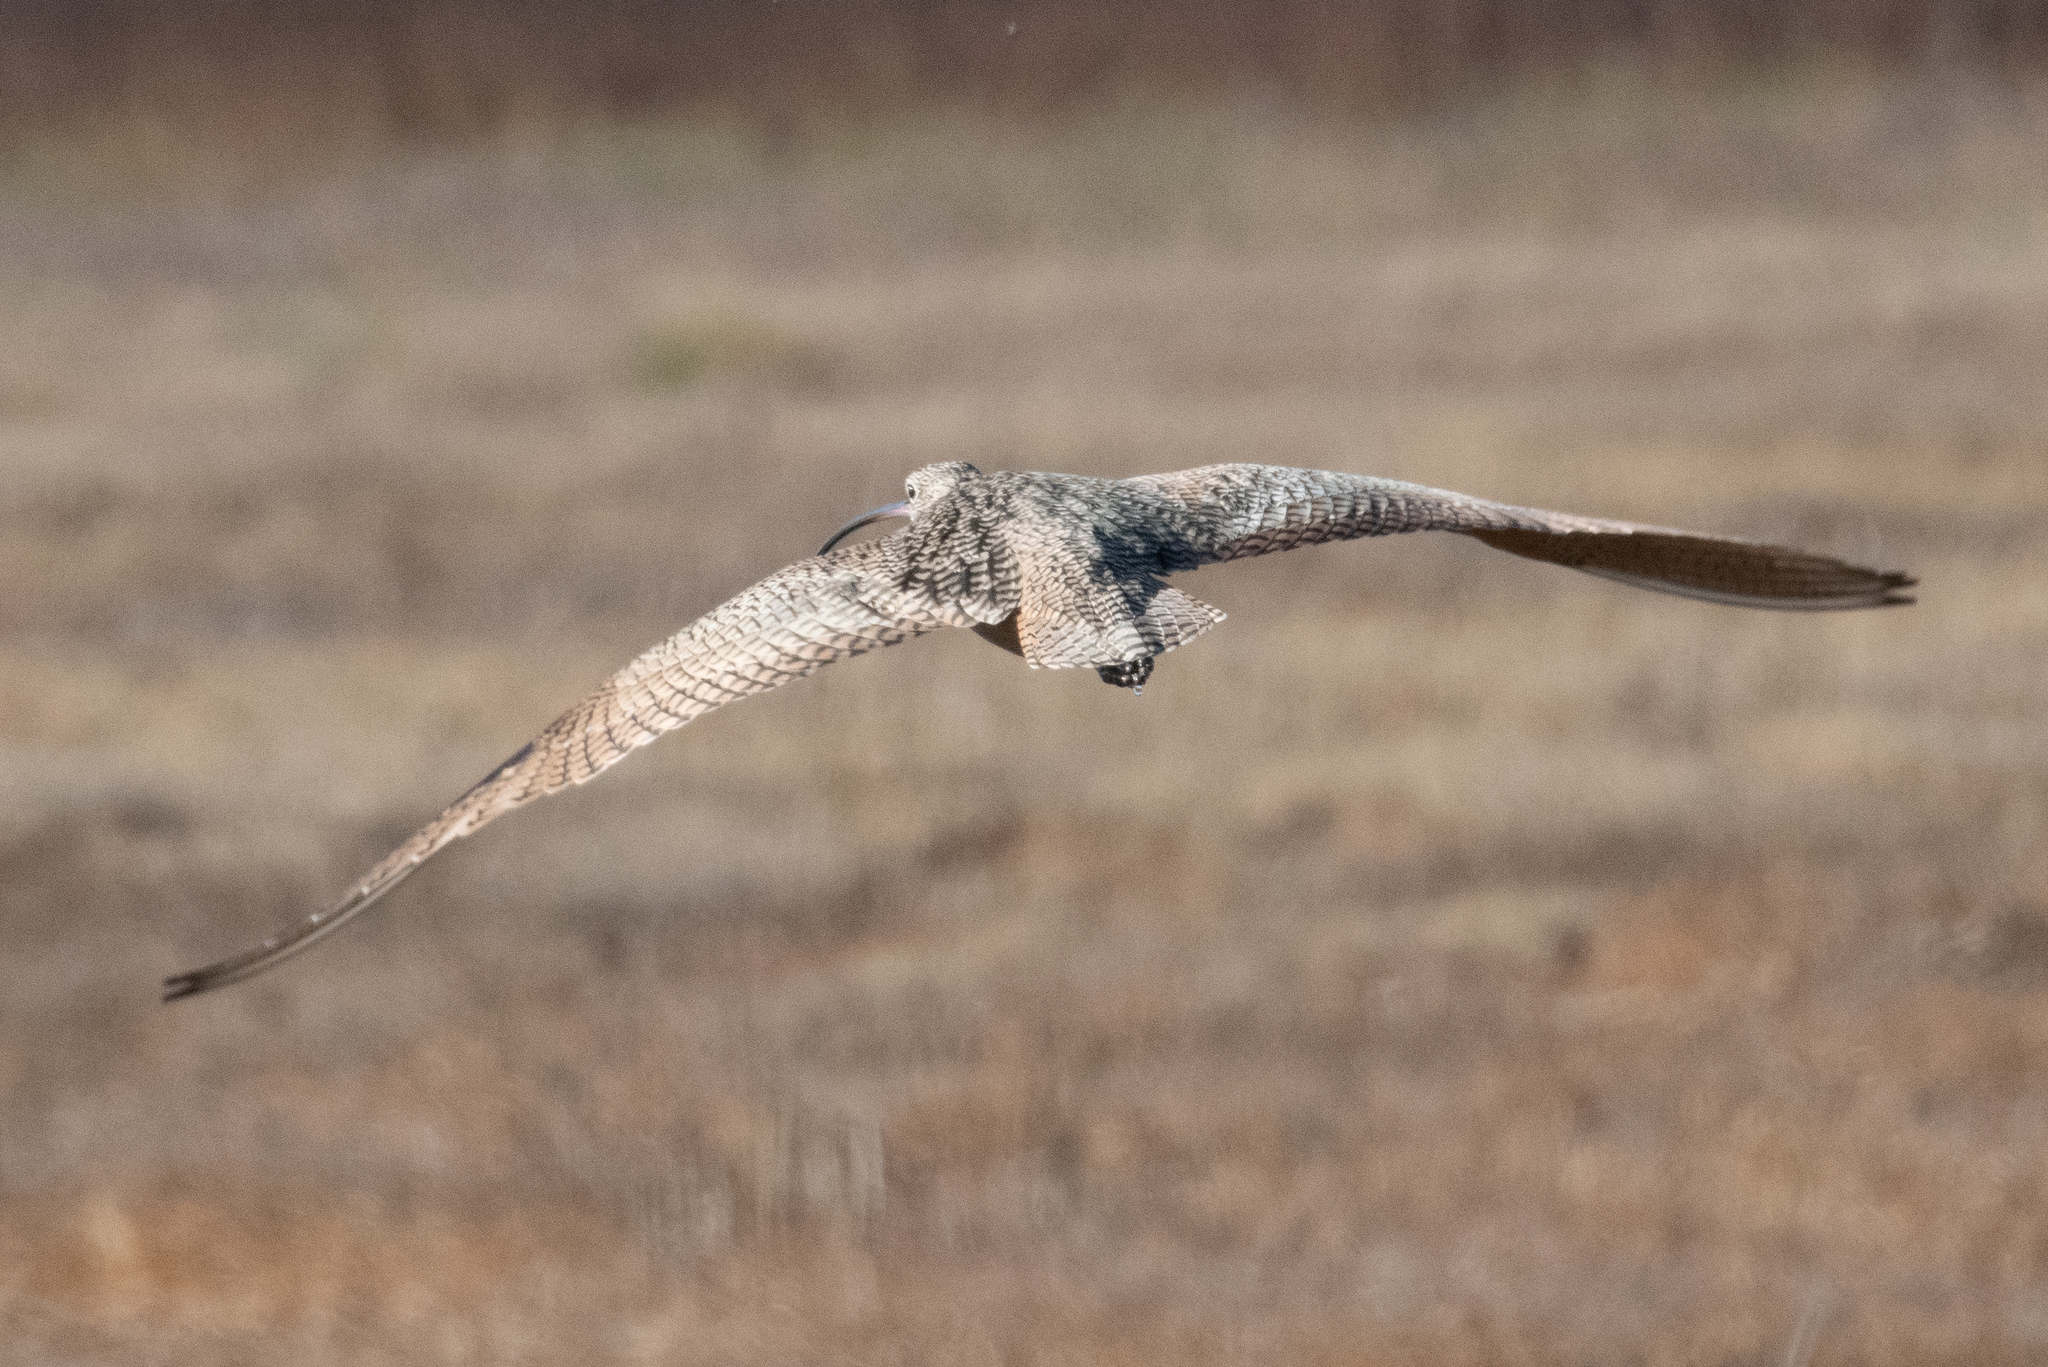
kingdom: Animalia
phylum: Chordata
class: Aves
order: Charadriiformes
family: Scolopacidae
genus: Numenius
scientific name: Numenius americanus
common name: Long-billed curlew
